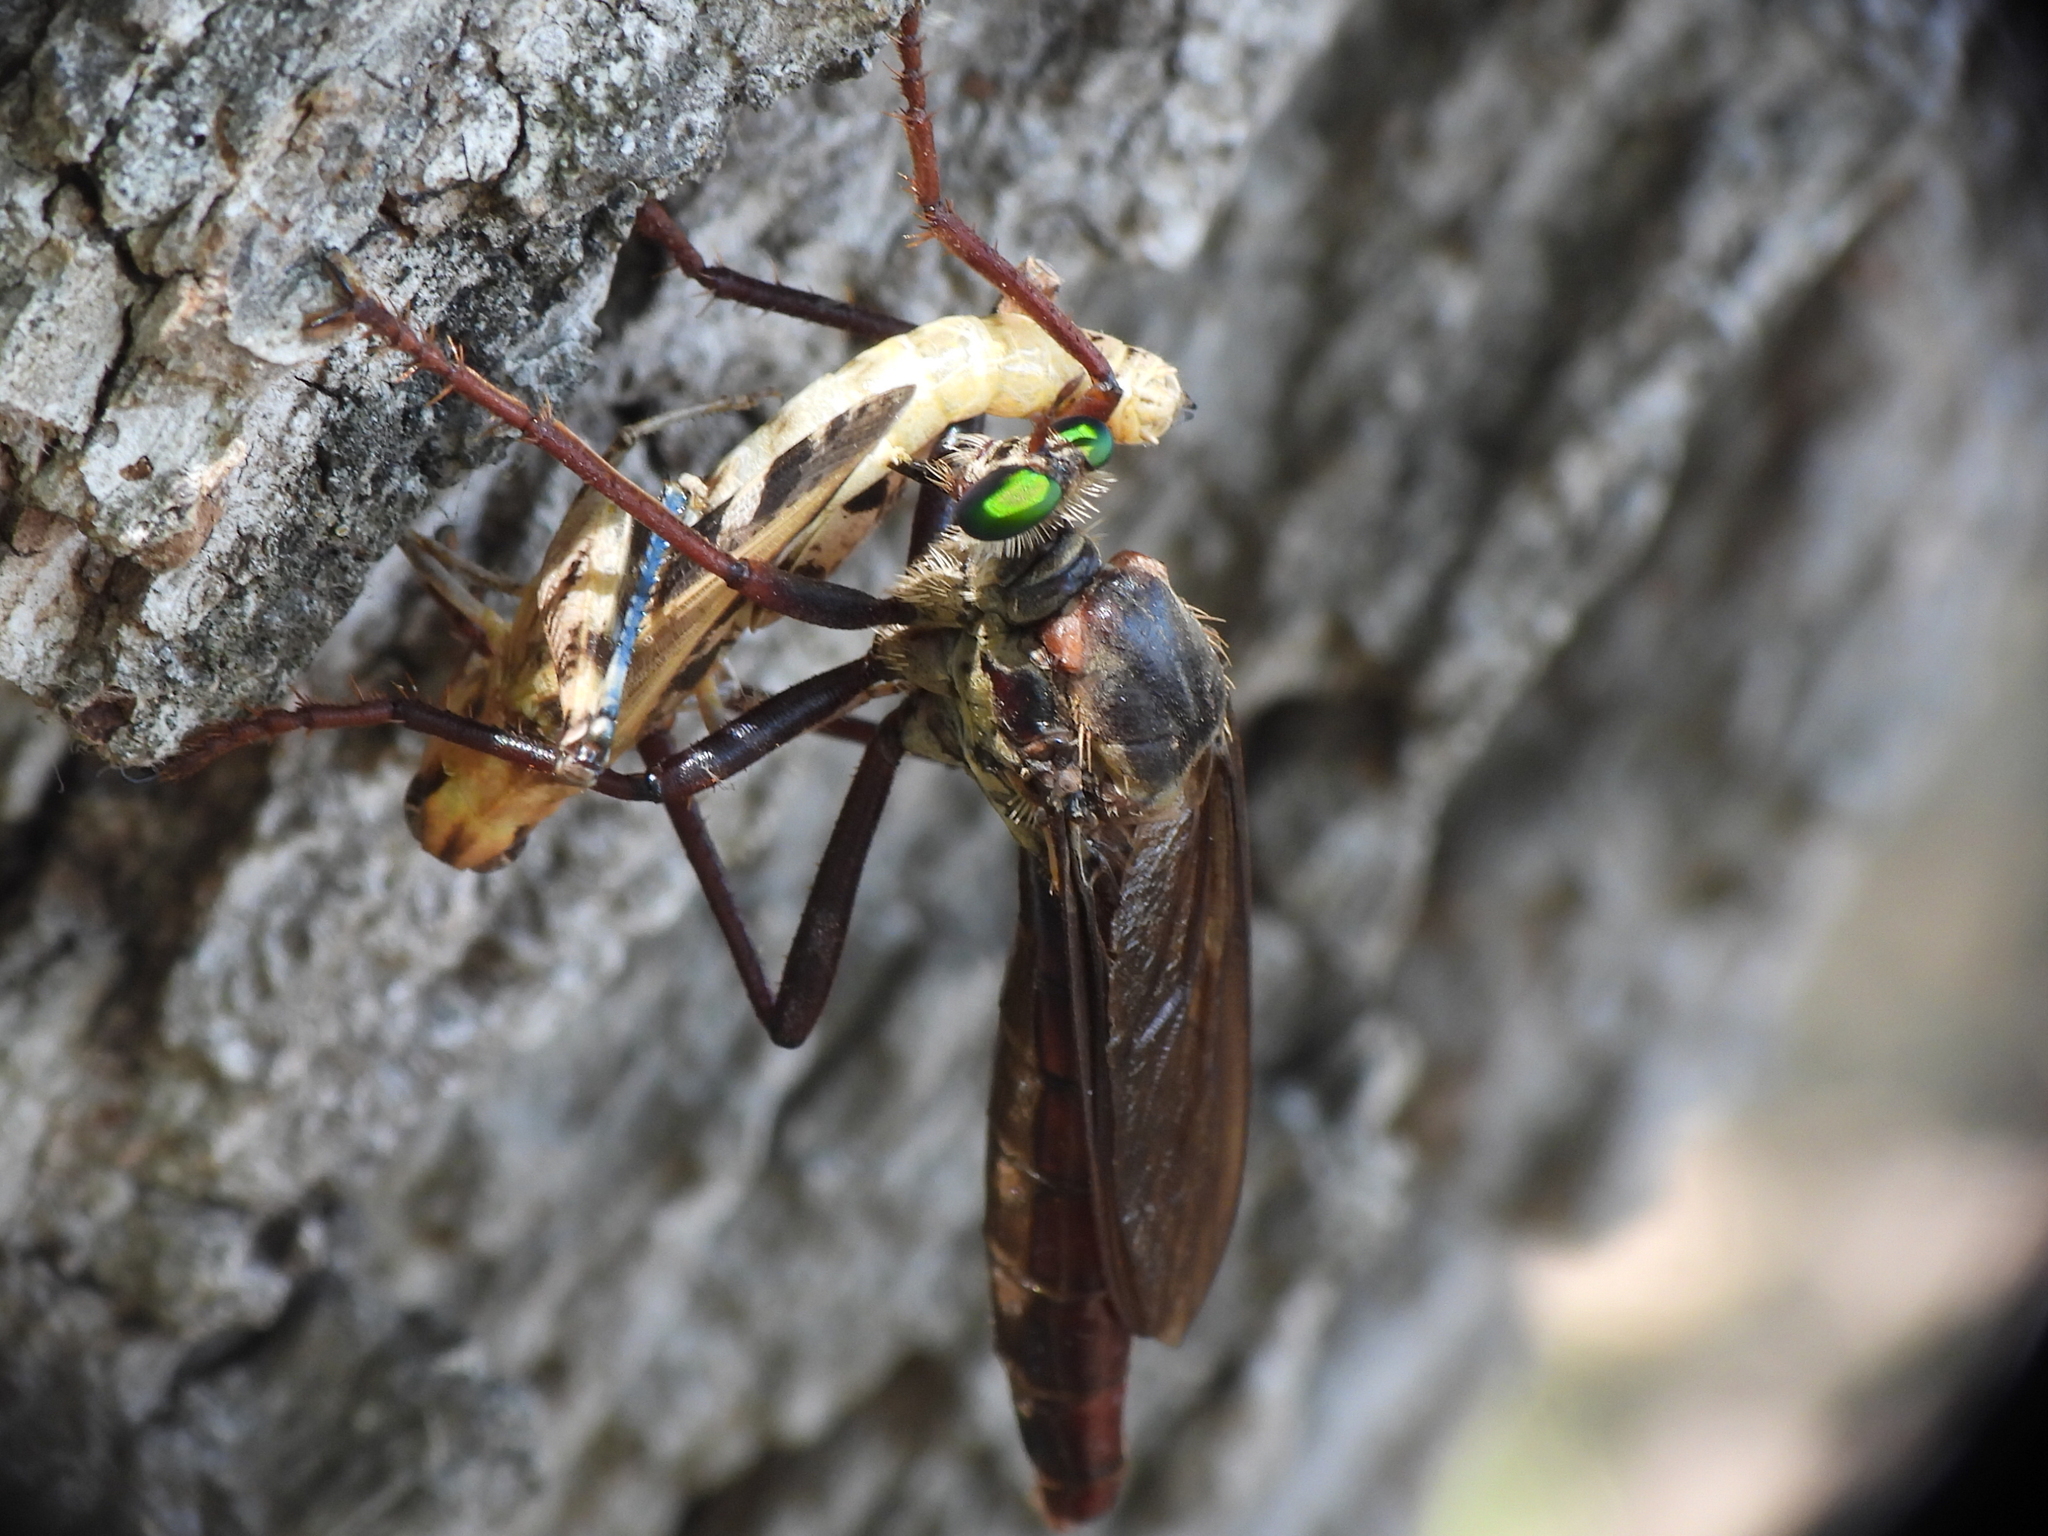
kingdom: Animalia
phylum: Arthropoda
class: Insecta
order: Diptera
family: Asilidae
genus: Microstylum
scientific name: Microstylum morosum
